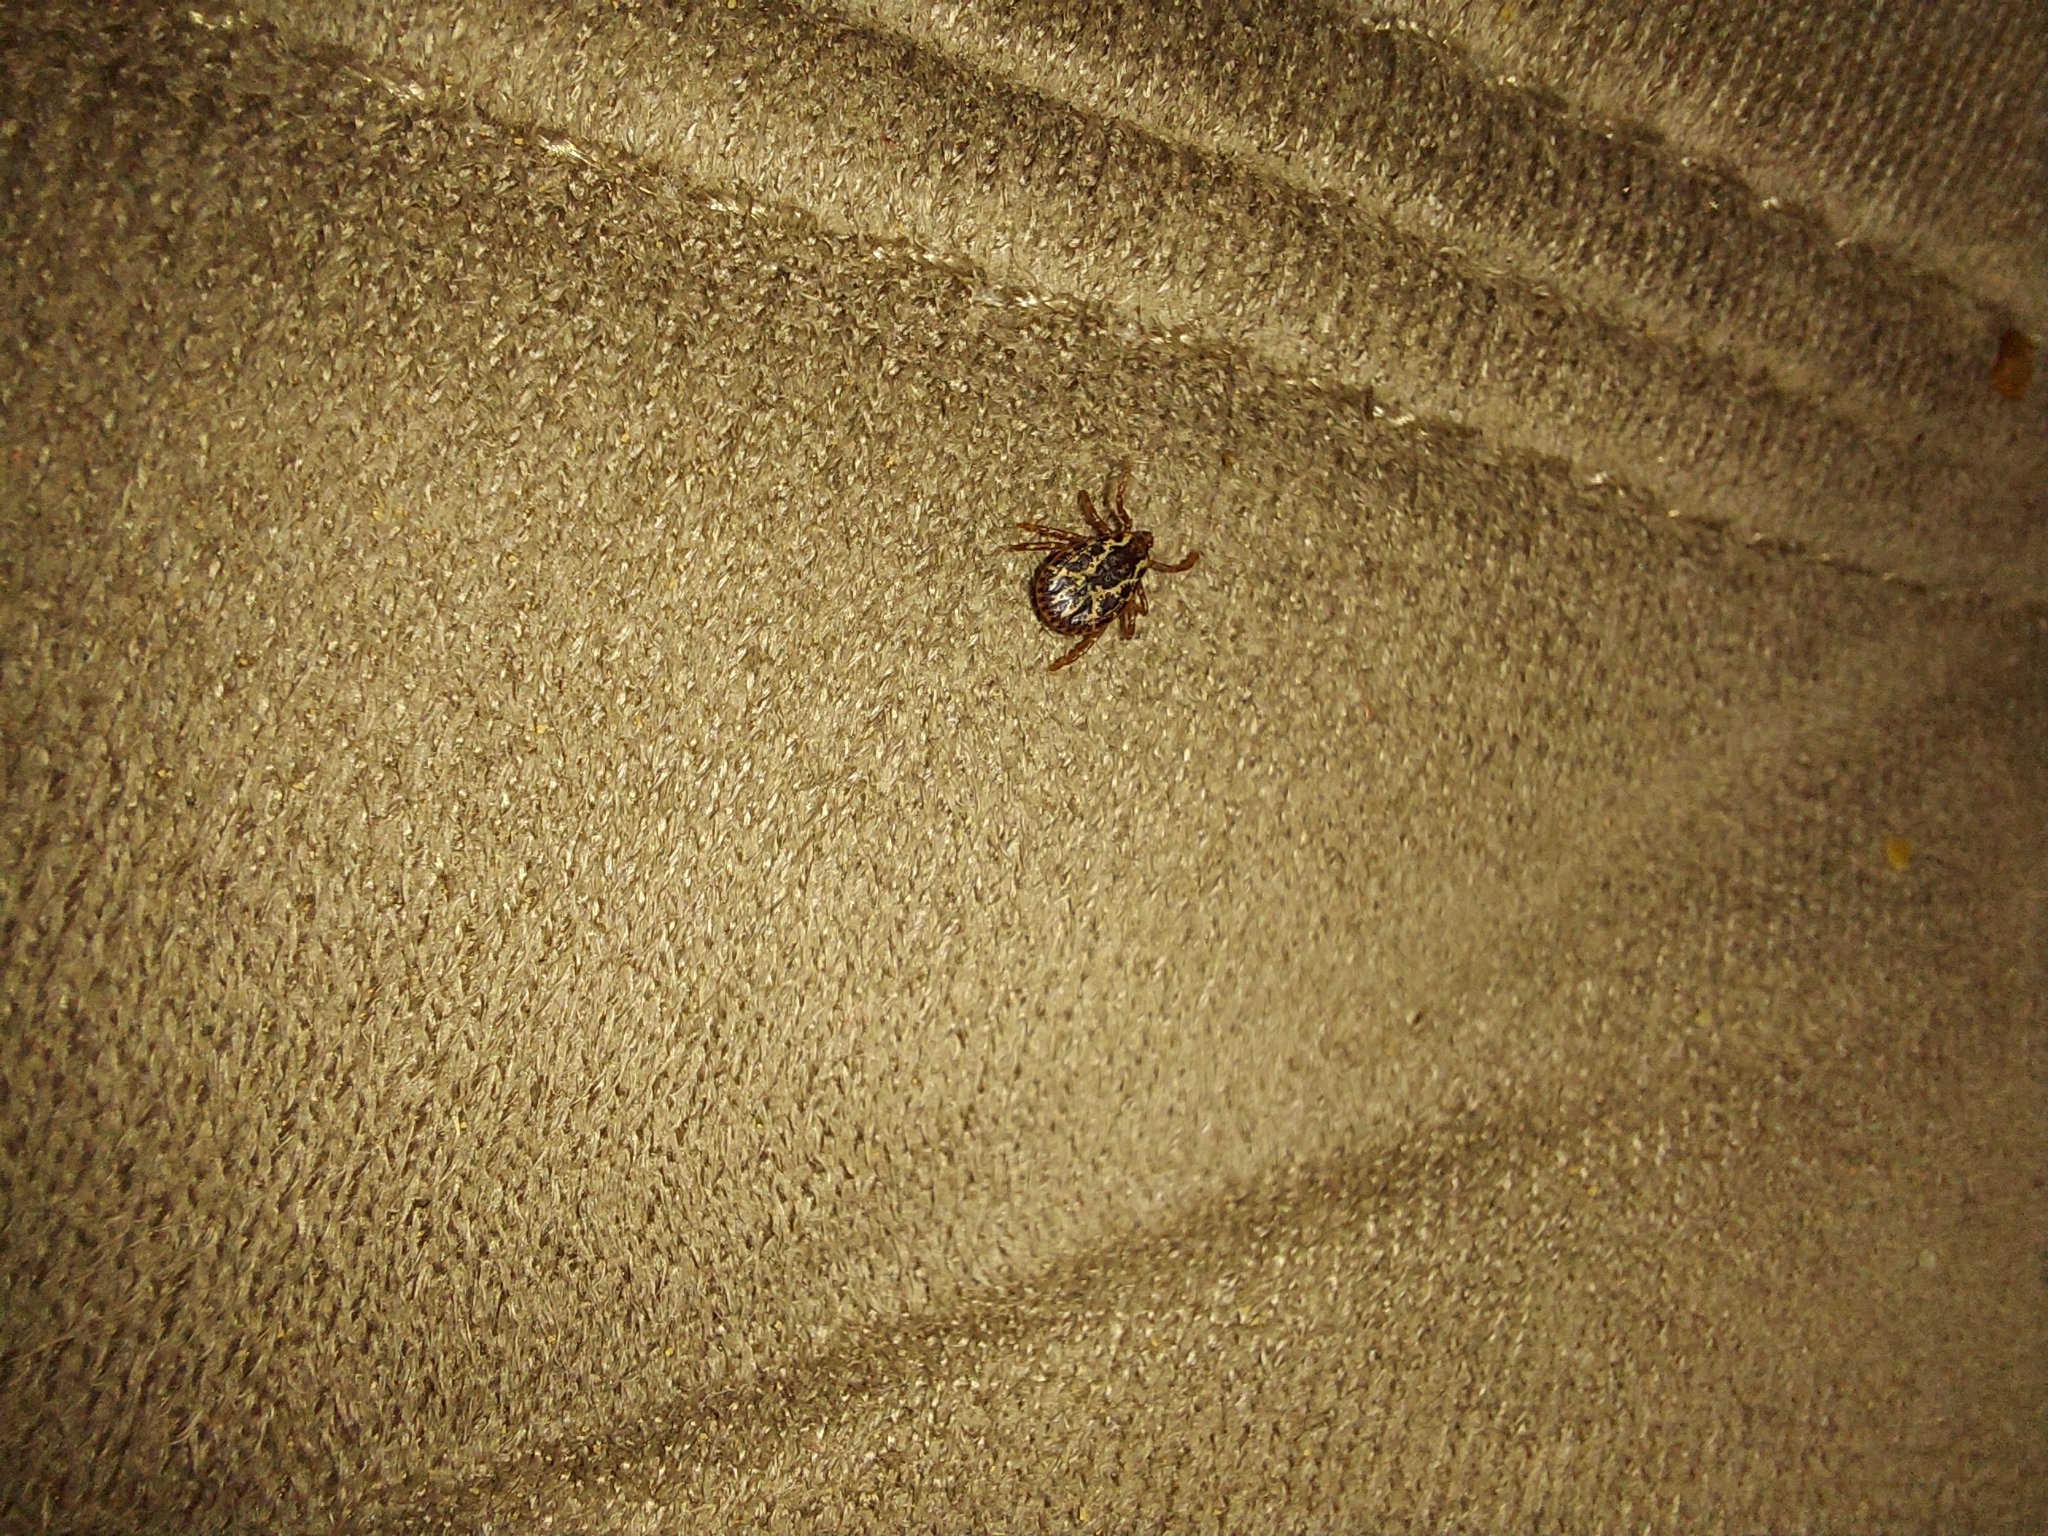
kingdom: Animalia
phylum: Arthropoda
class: Arachnida
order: Ixodida
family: Ixodidae
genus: Dermacentor
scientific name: Dermacentor variabilis
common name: American dog tick
